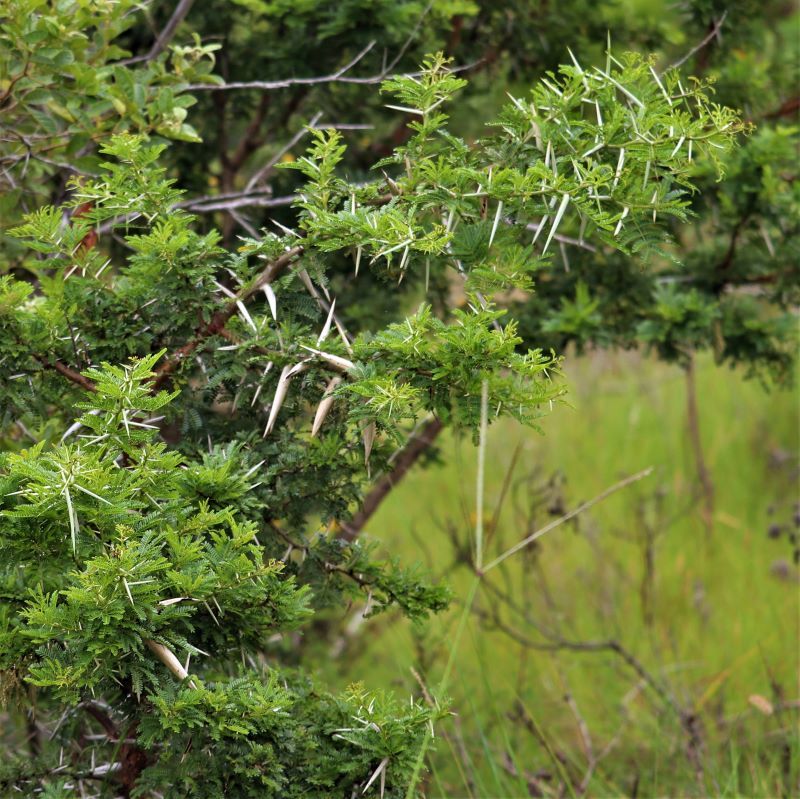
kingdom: Plantae
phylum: Tracheophyta
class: Magnoliopsida
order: Fabales
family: Fabaceae
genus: Vachellia
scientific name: Vachellia karroo
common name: Sweet thorn
